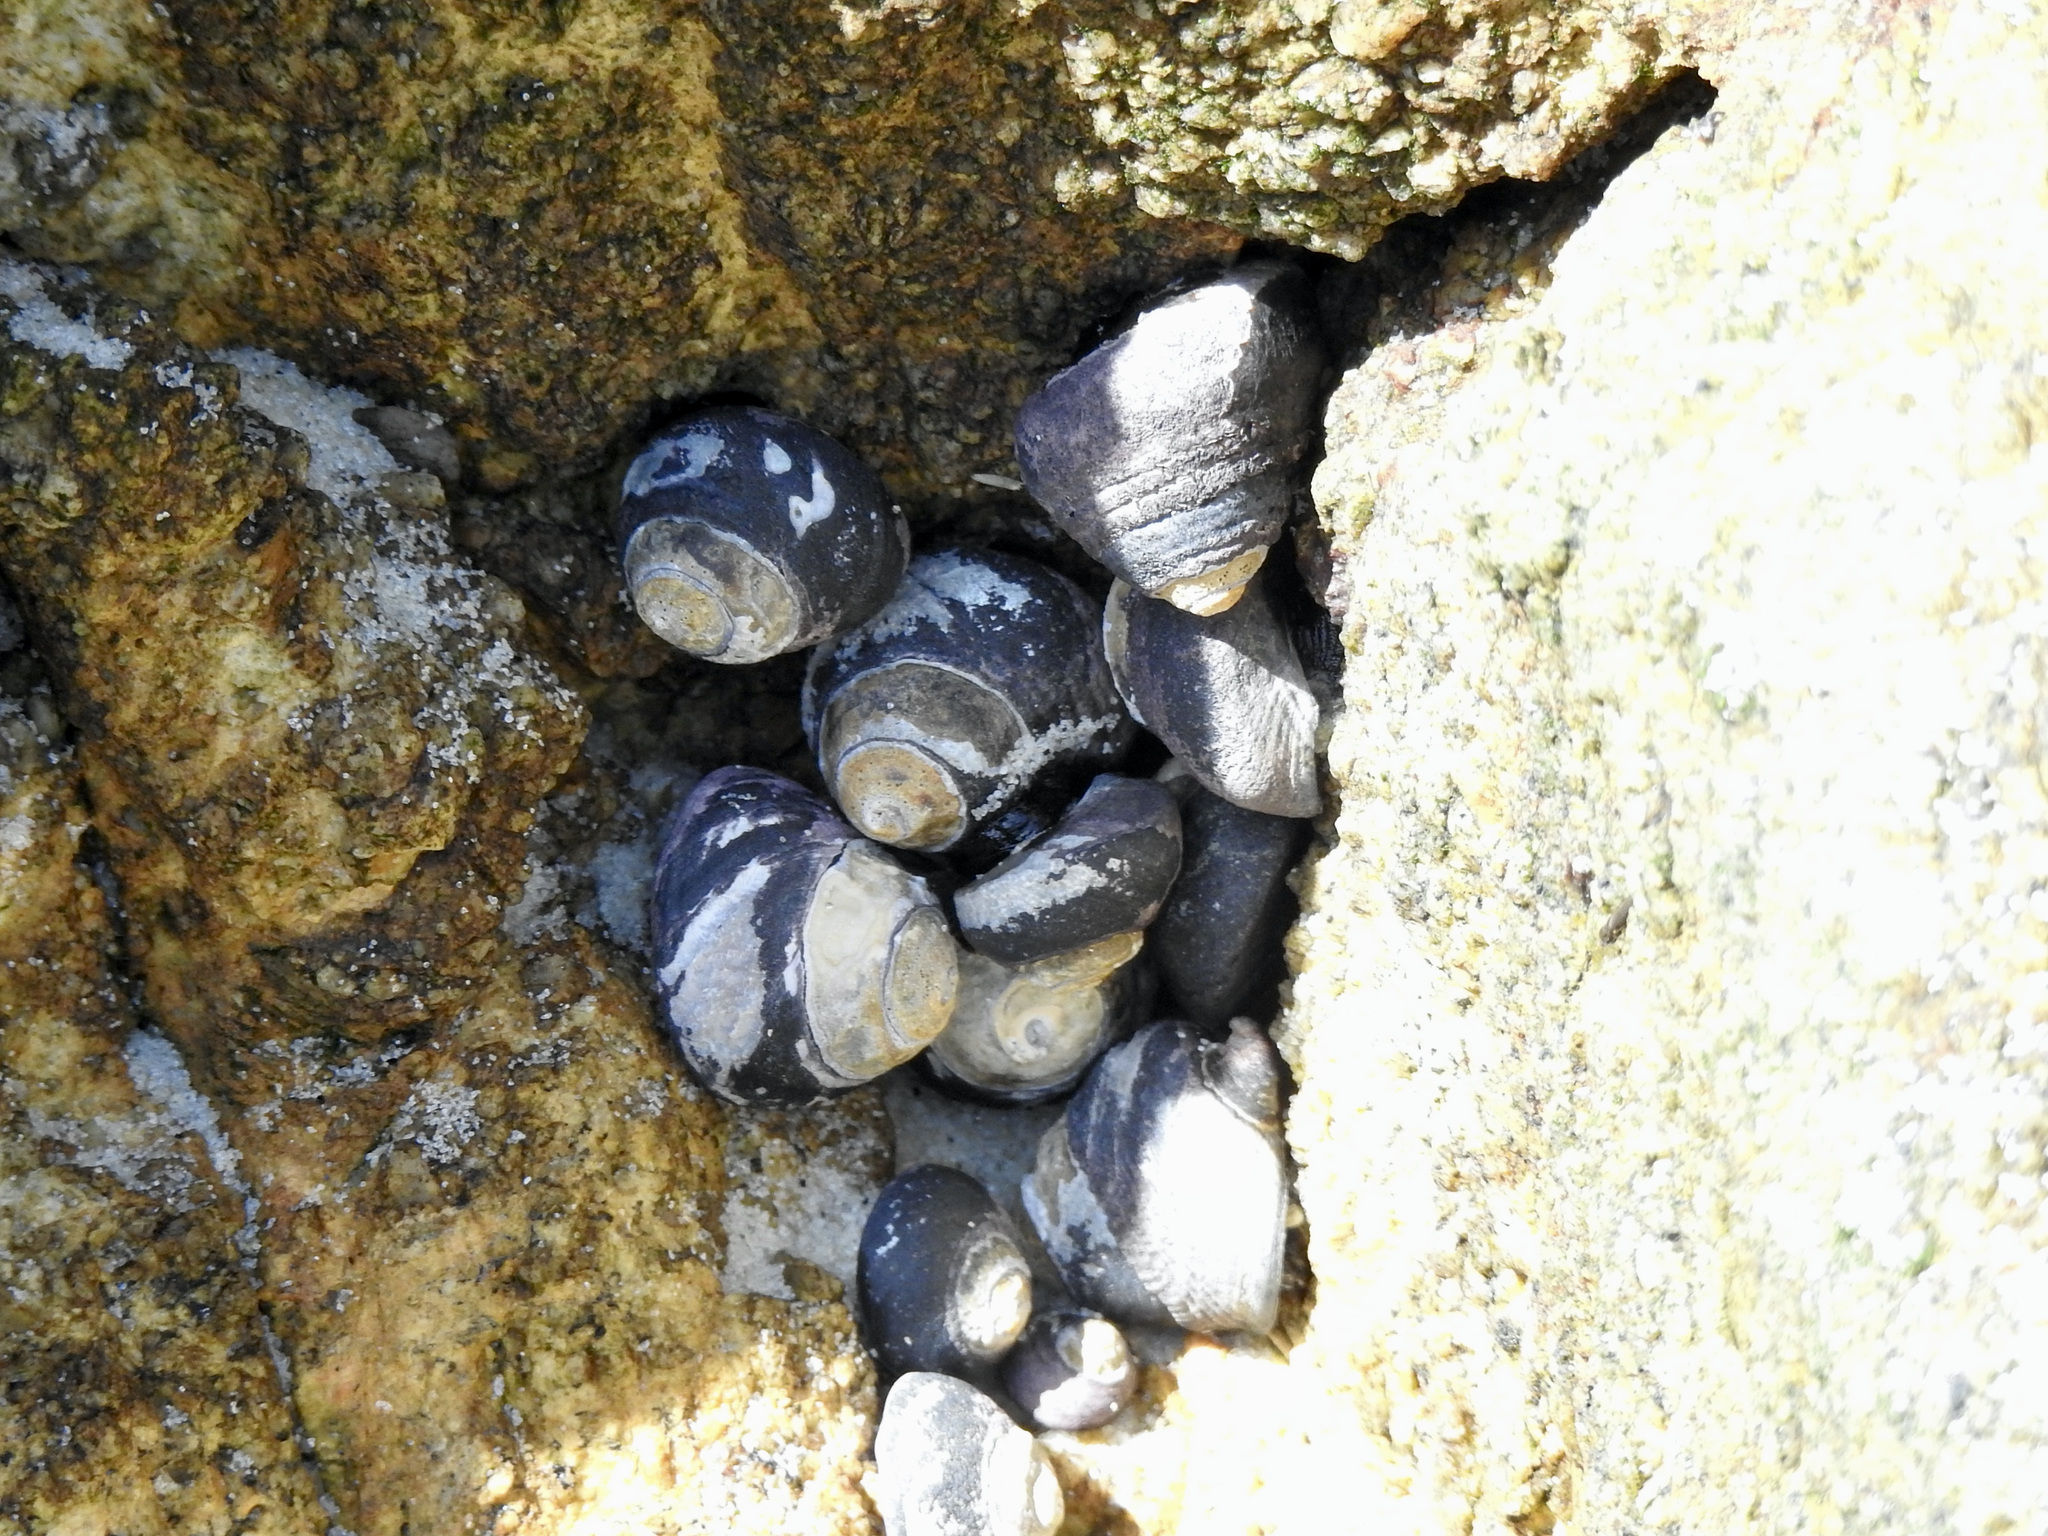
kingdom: Animalia
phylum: Mollusca
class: Gastropoda
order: Trochida
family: Tegulidae
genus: Tegula
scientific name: Tegula funebralis
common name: Black tegula
